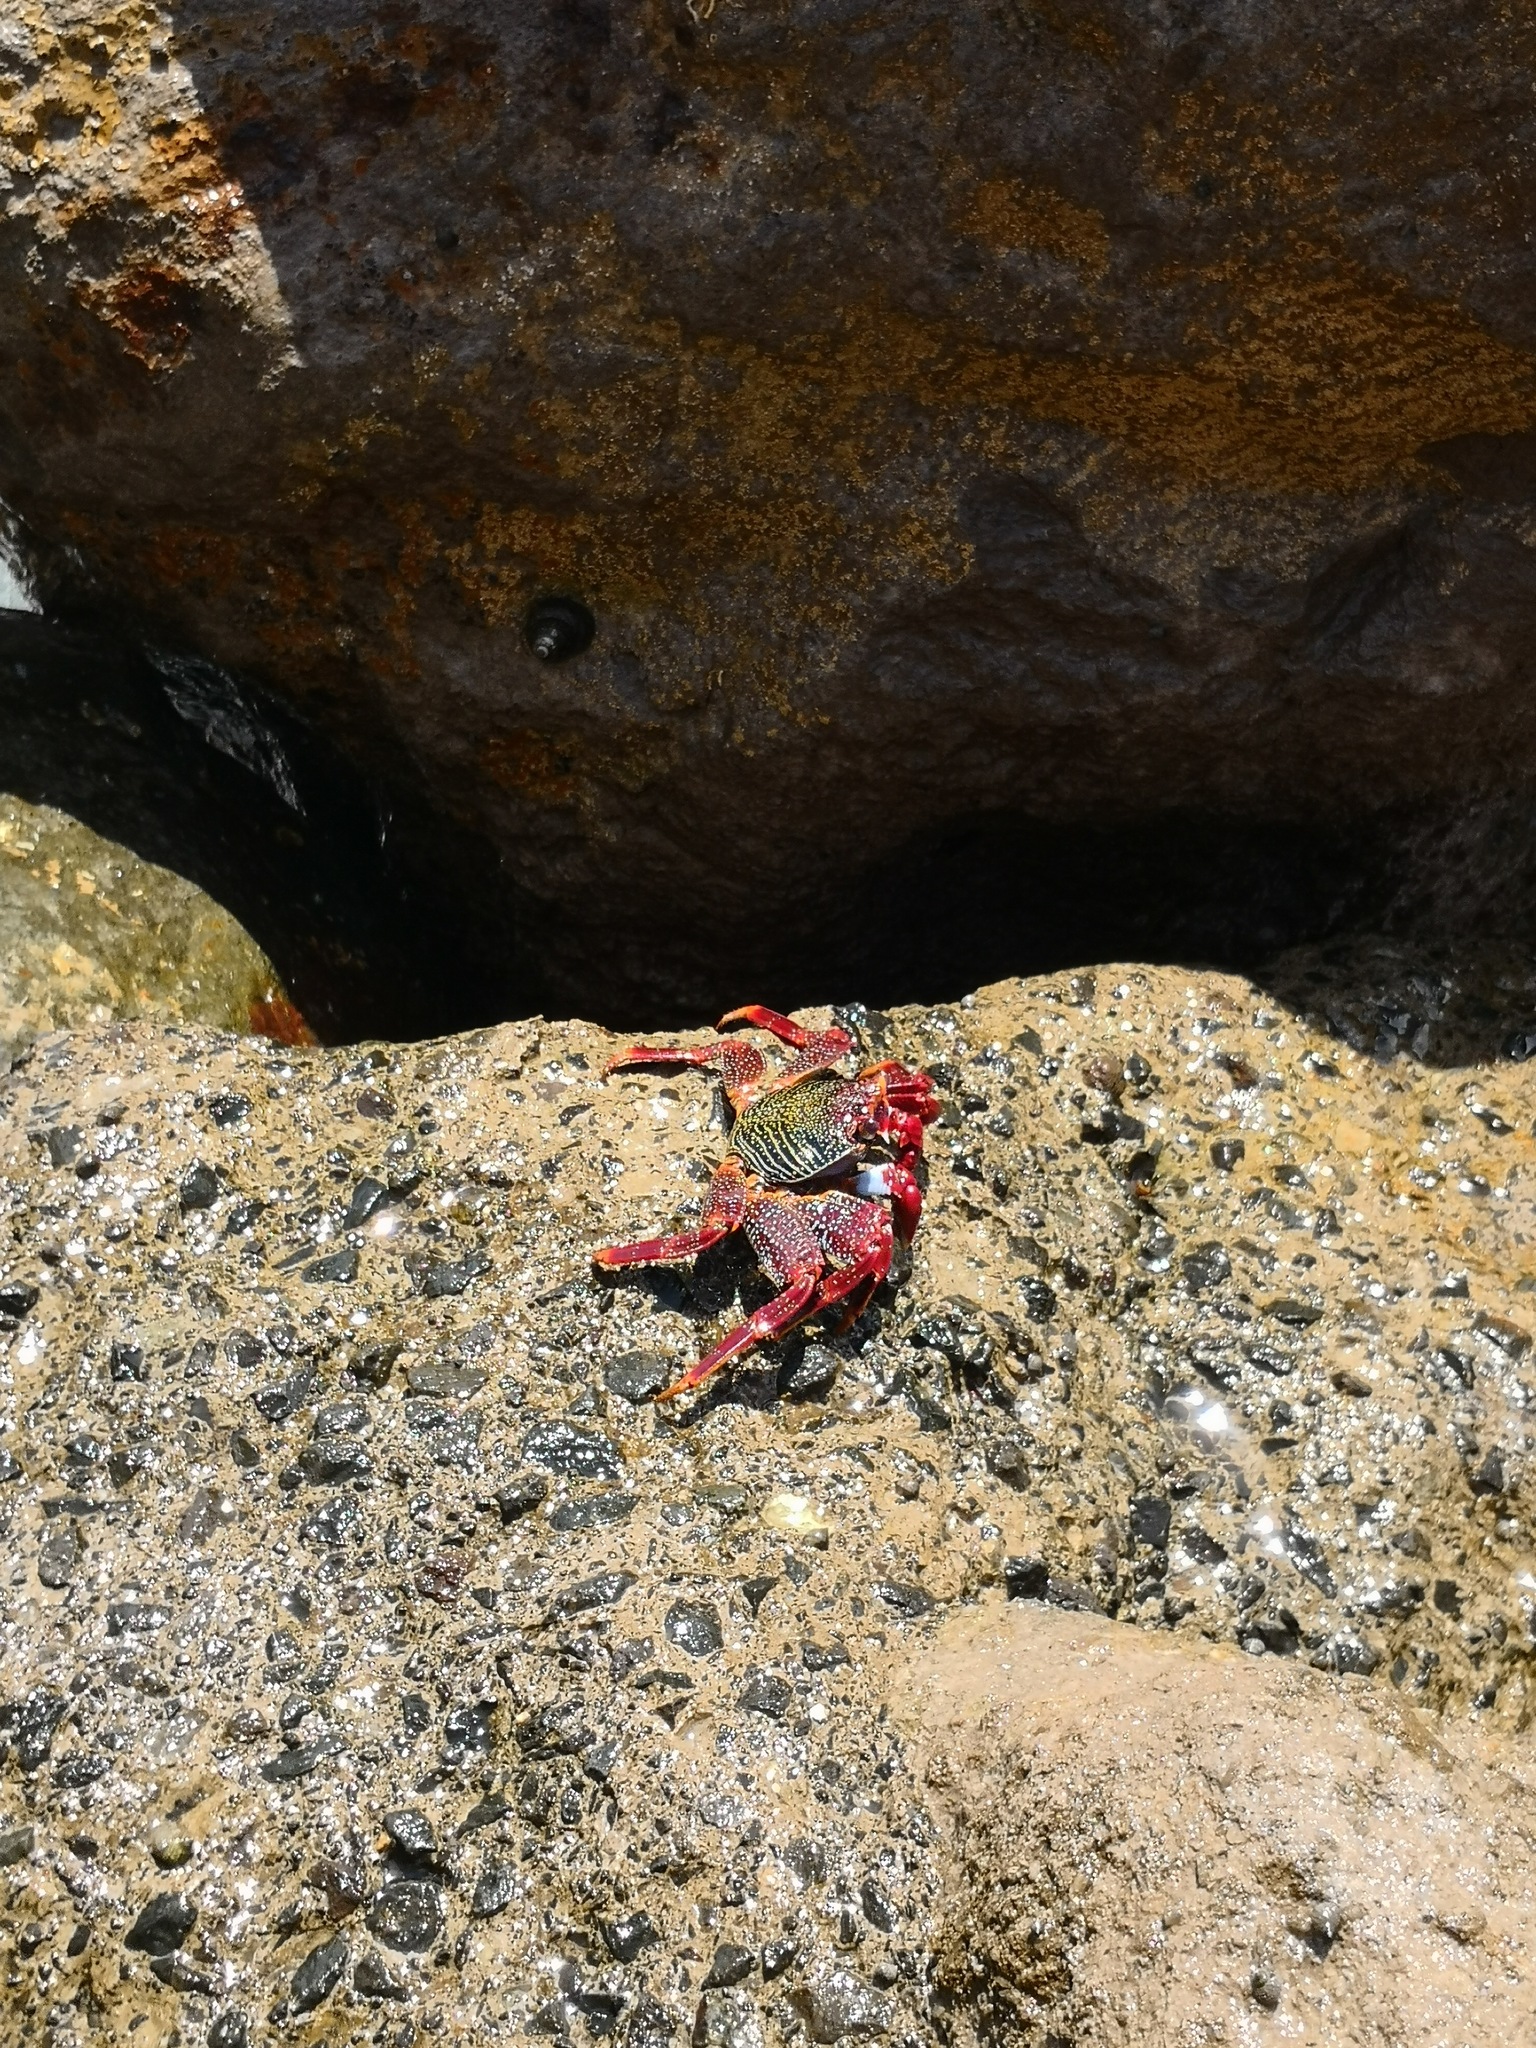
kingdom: Animalia
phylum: Arthropoda
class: Malacostraca
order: Decapoda
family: Grapsidae
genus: Grapsus
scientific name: Grapsus adscensionis
